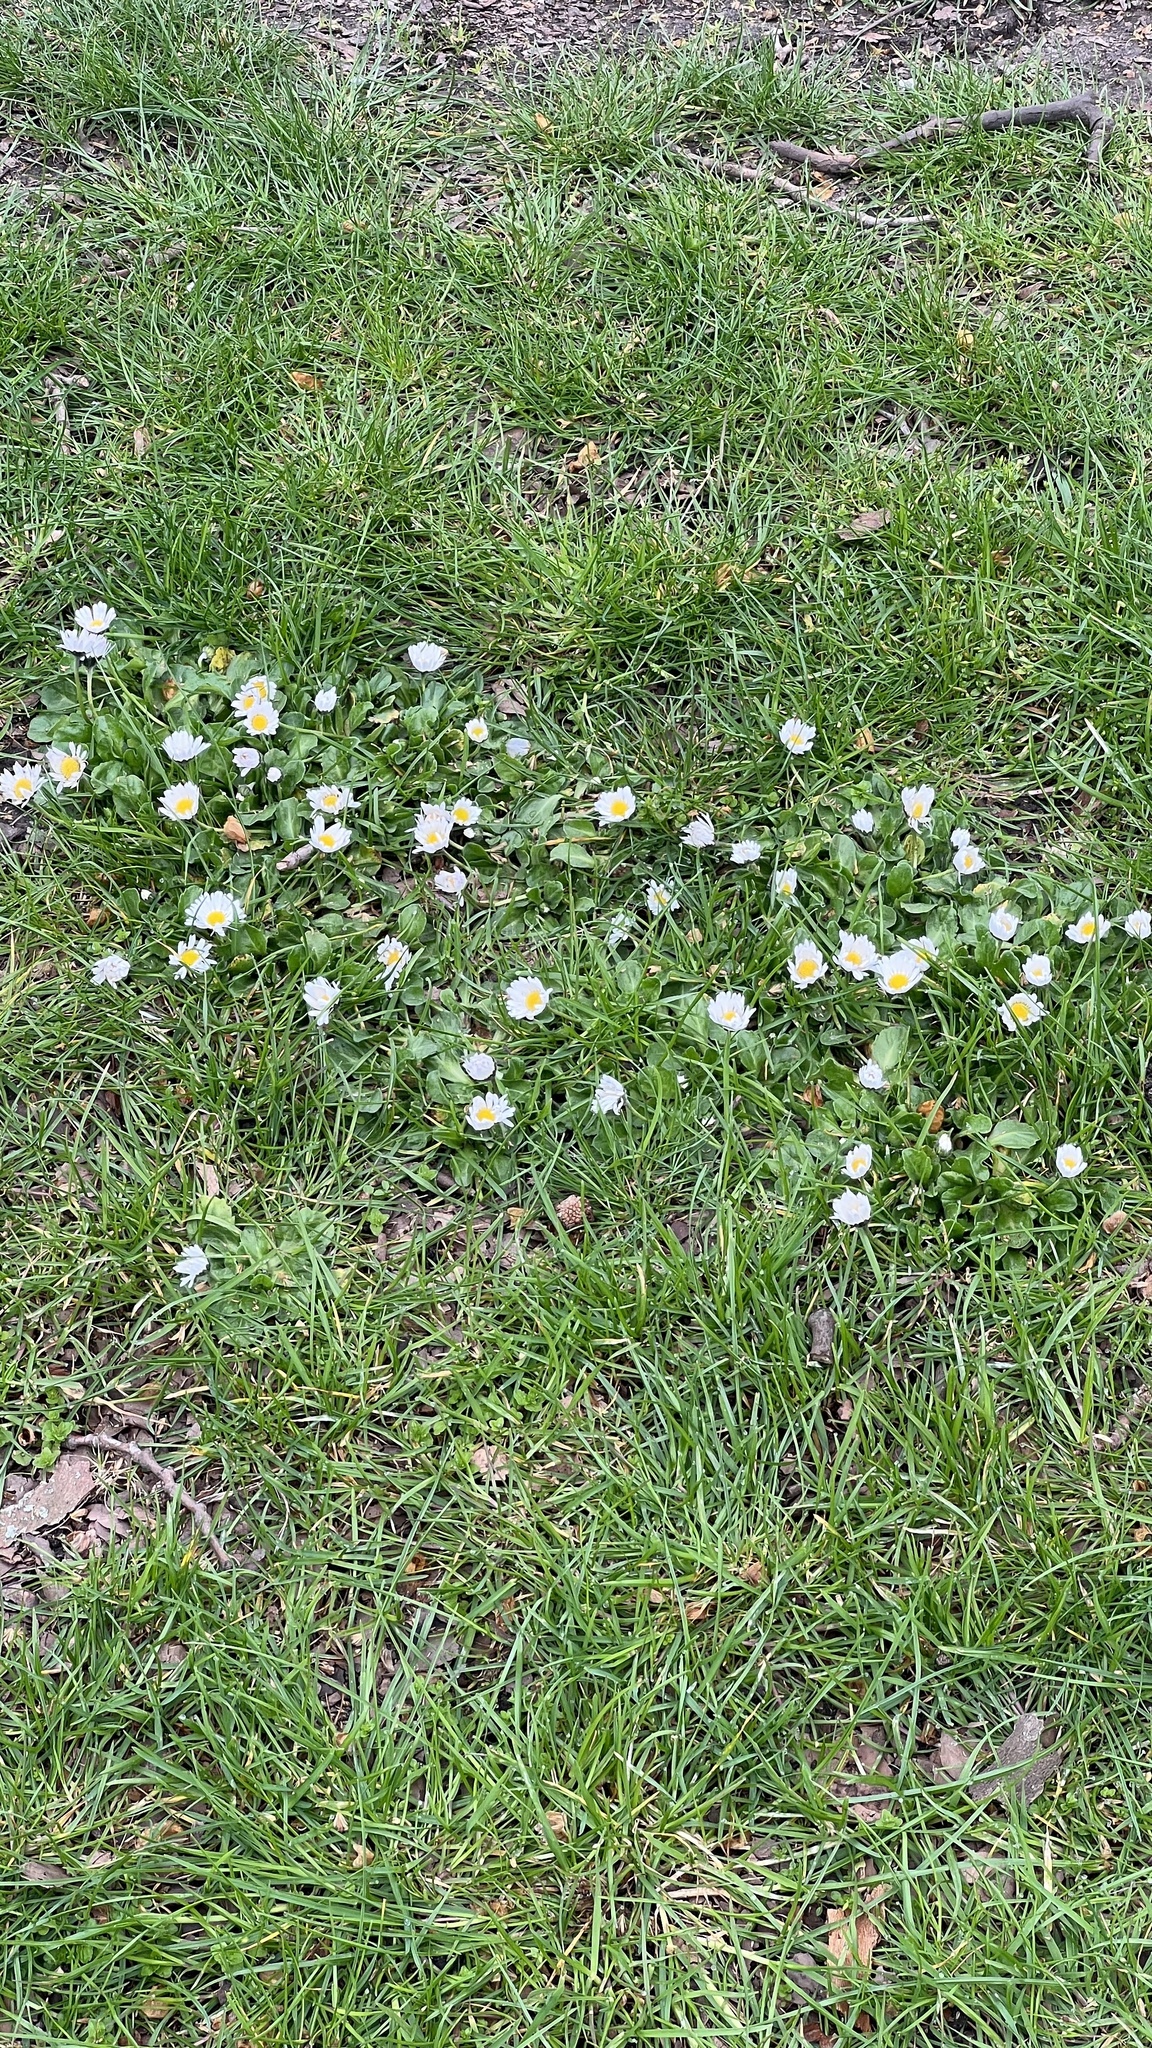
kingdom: Plantae
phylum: Tracheophyta
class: Magnoliopsida
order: Asterales
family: Asteraceae
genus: Bellis
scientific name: Bellis perennis
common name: Lawndaisy
